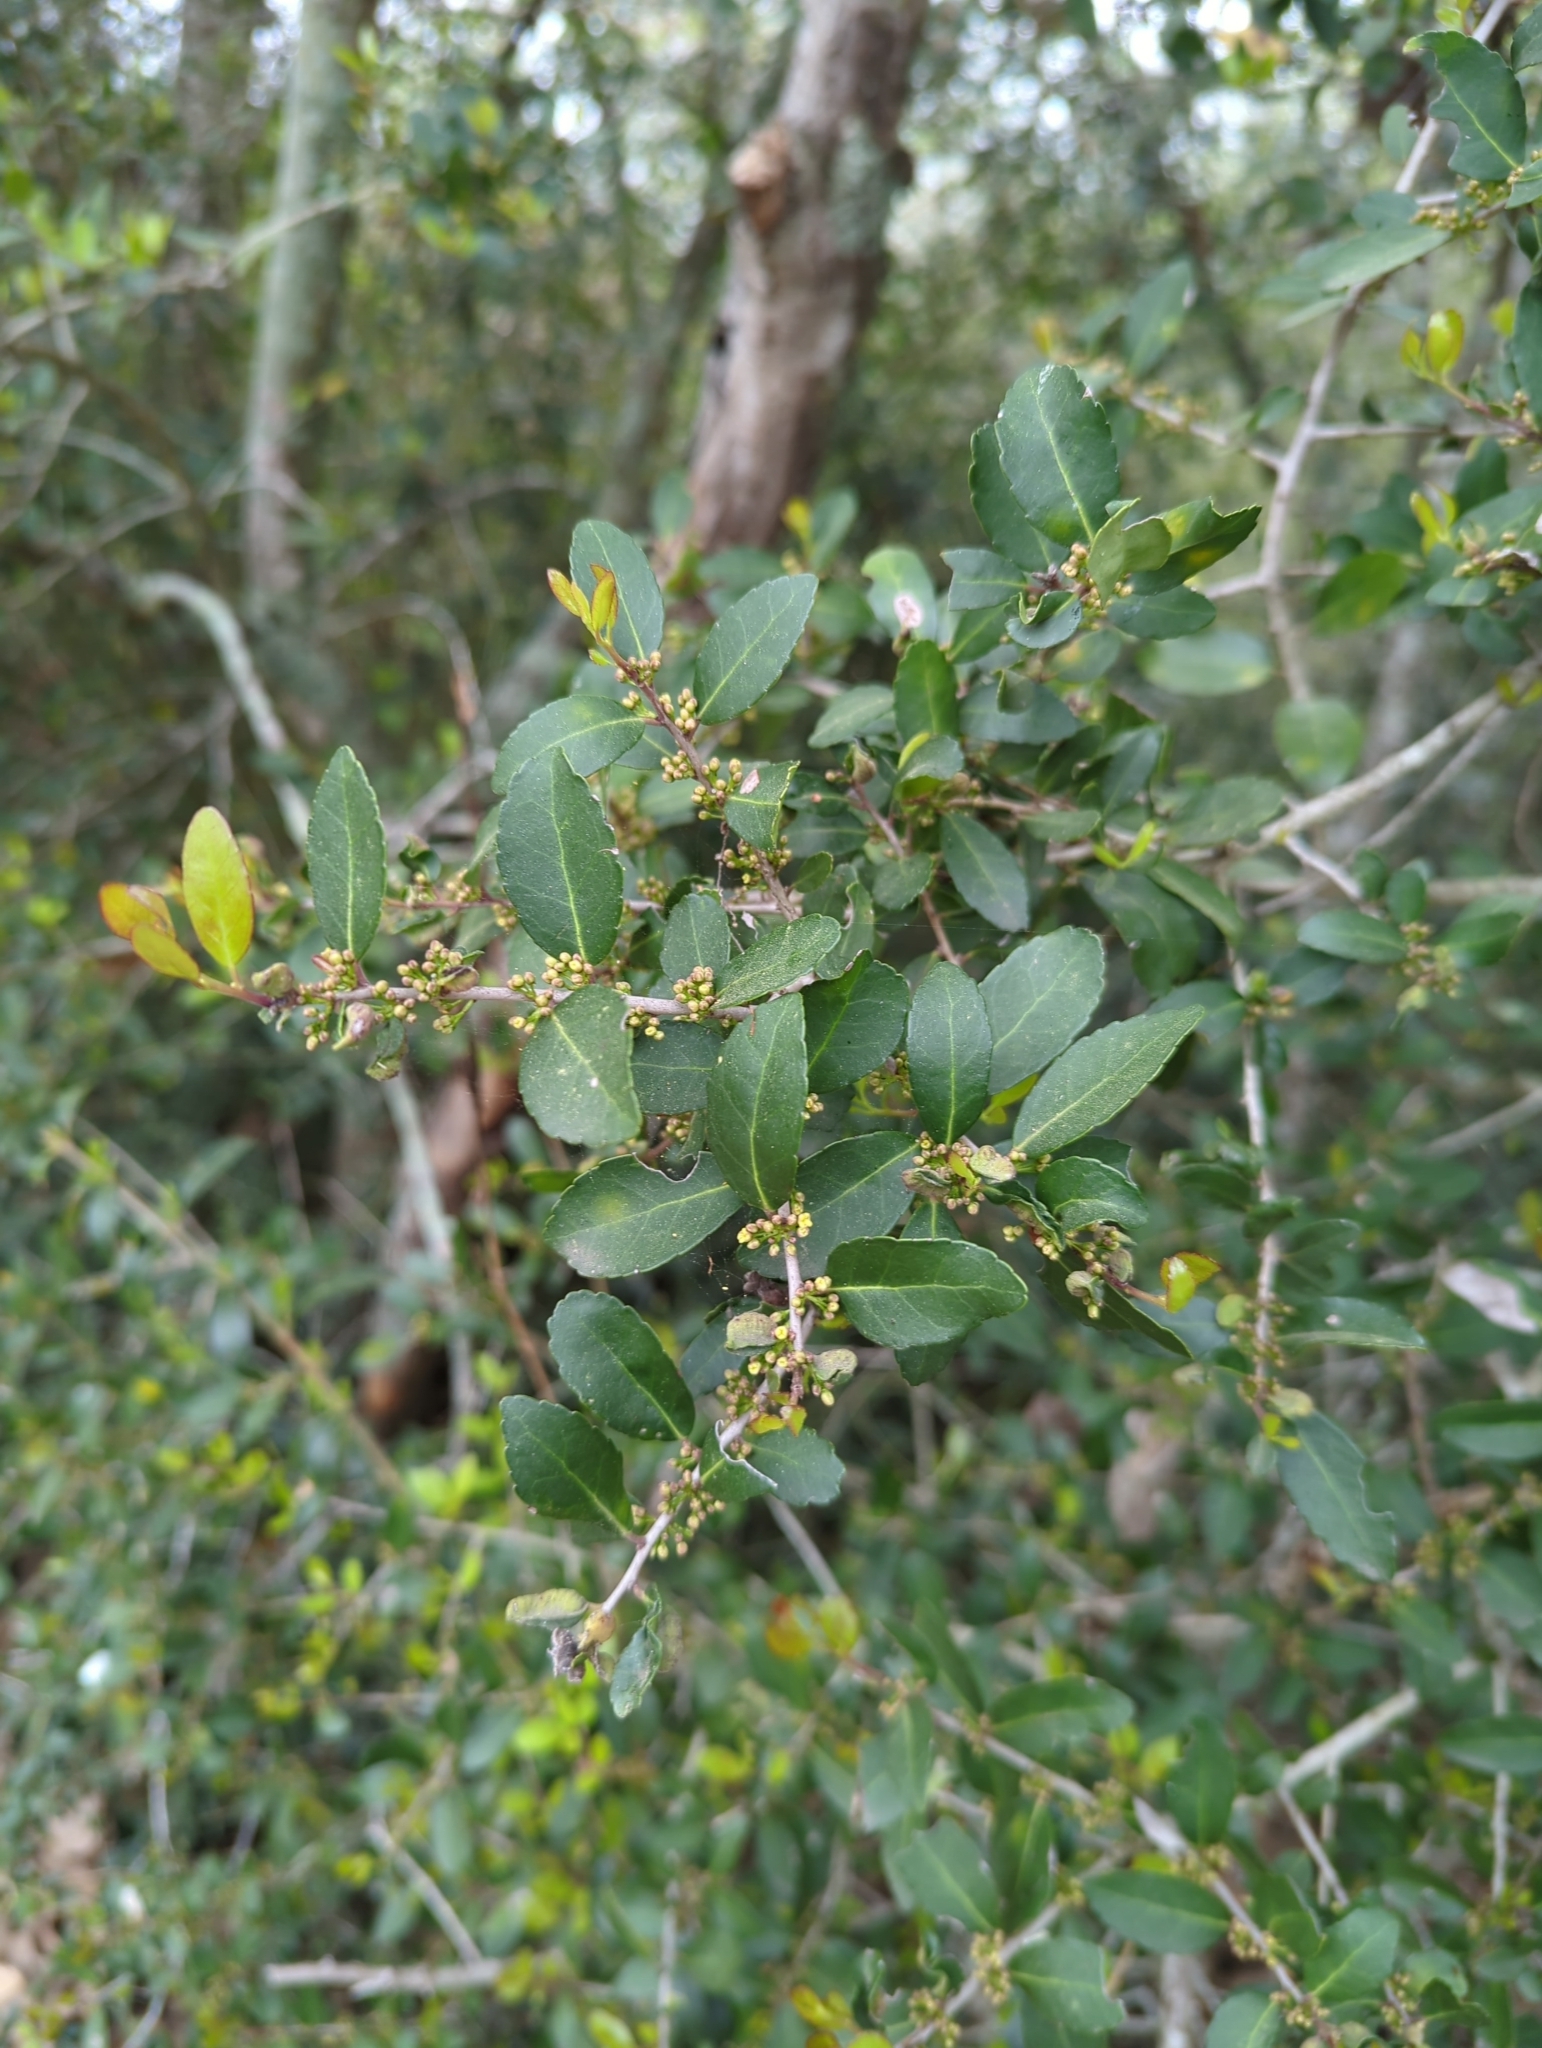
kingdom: Plantae
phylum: Tracheophyta
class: Magnoliopsida
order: Aquifoliales
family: Aquifoliaceae
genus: Ilex
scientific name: Ilex vomitoria
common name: Yaupon holly
